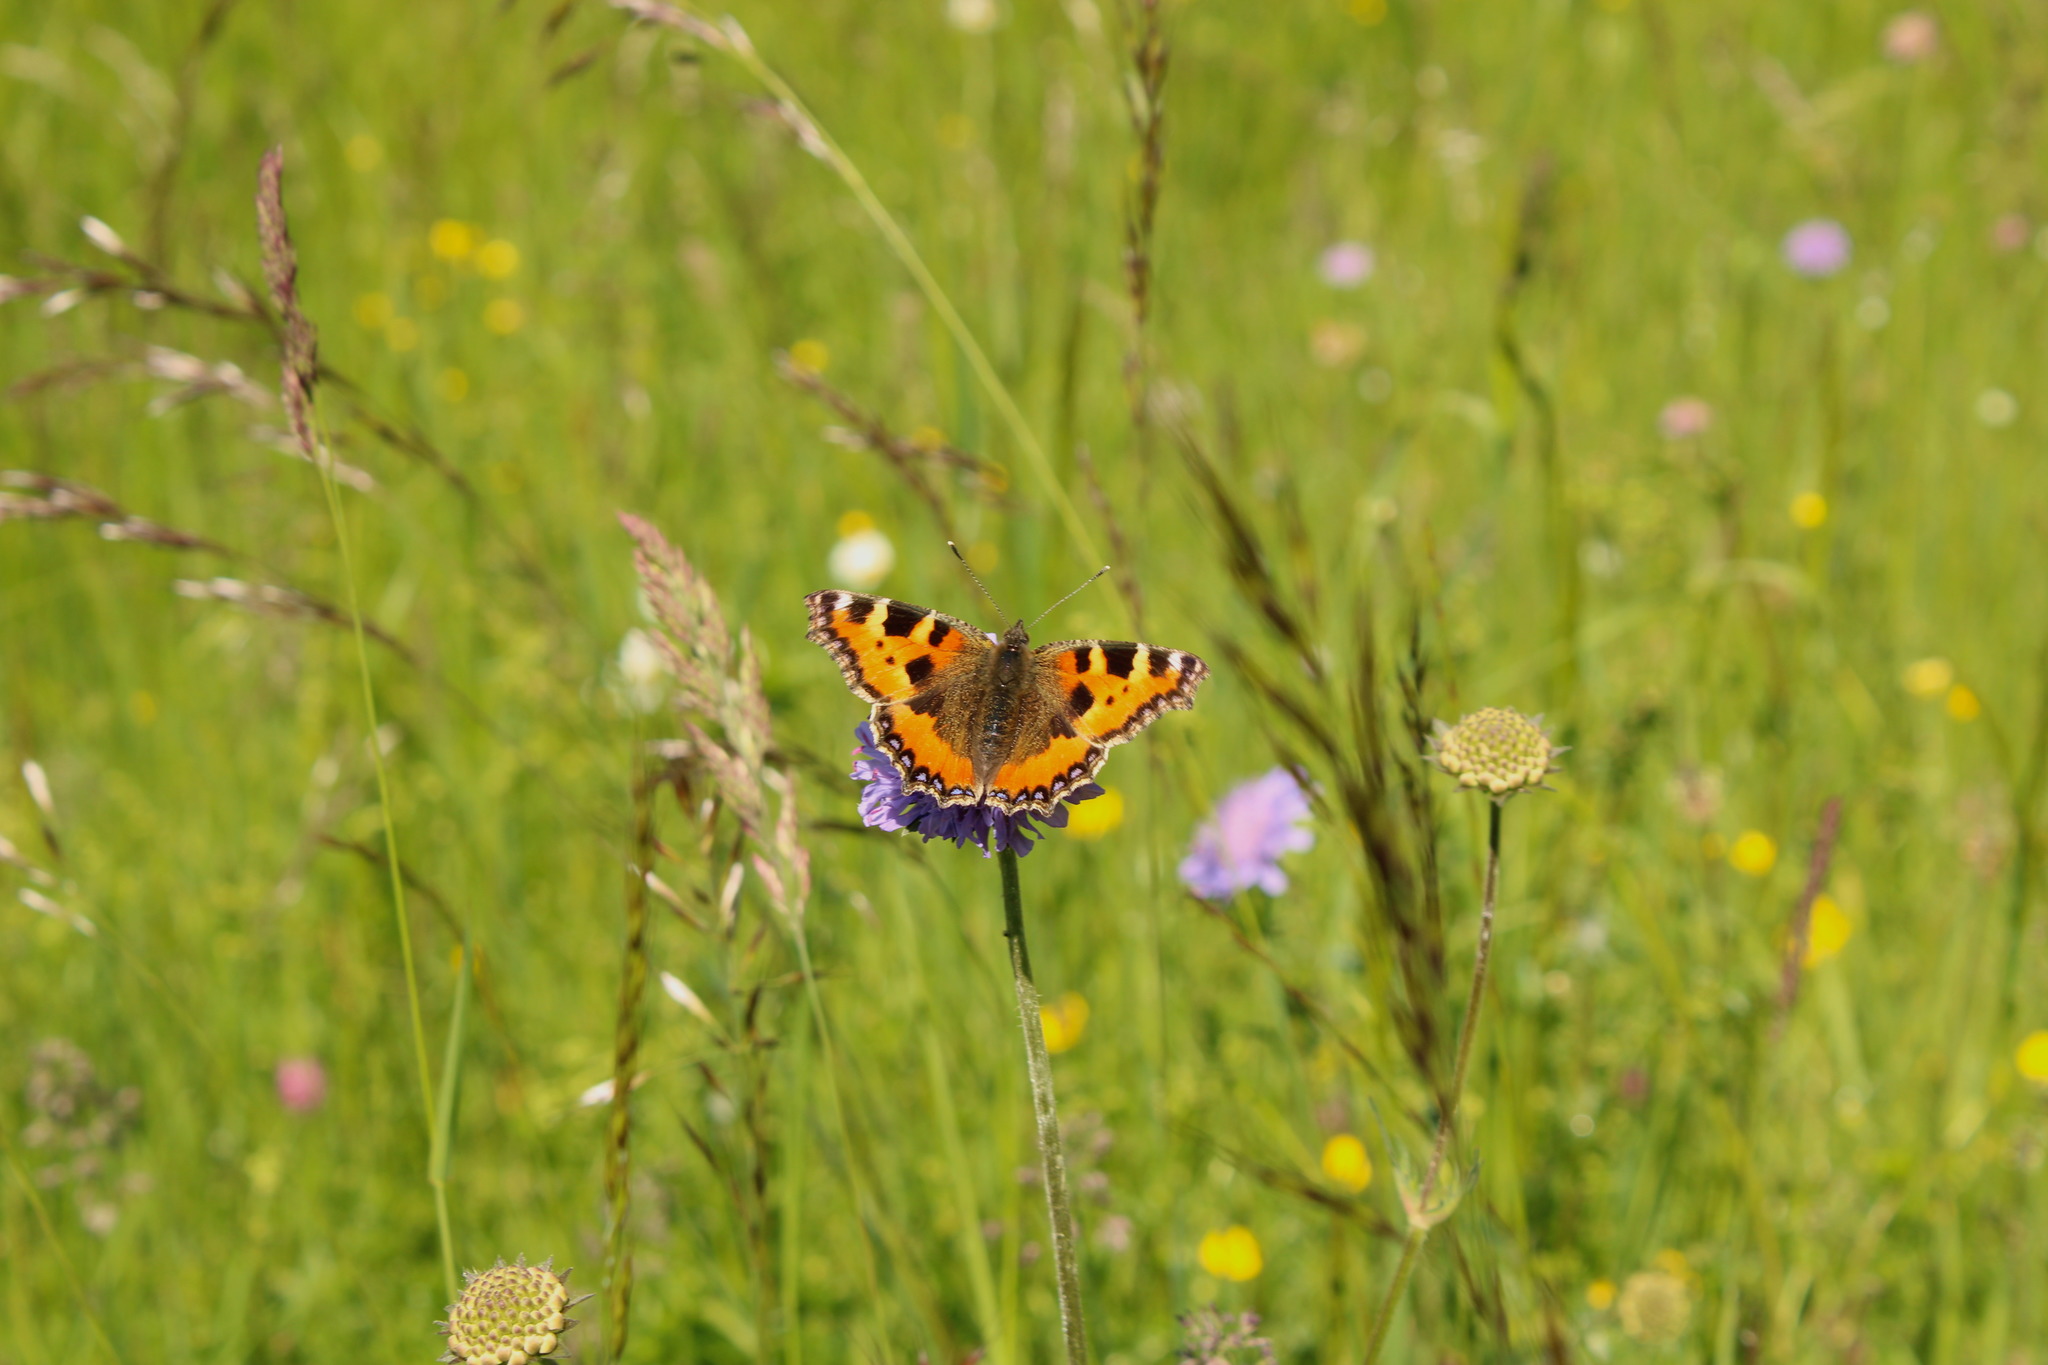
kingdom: Animalia
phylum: Arthropoda
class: Insecta
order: Lepidoptera
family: Nymphalidae
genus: Aglais
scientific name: Aglais urticae
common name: Small tortoiseshell
